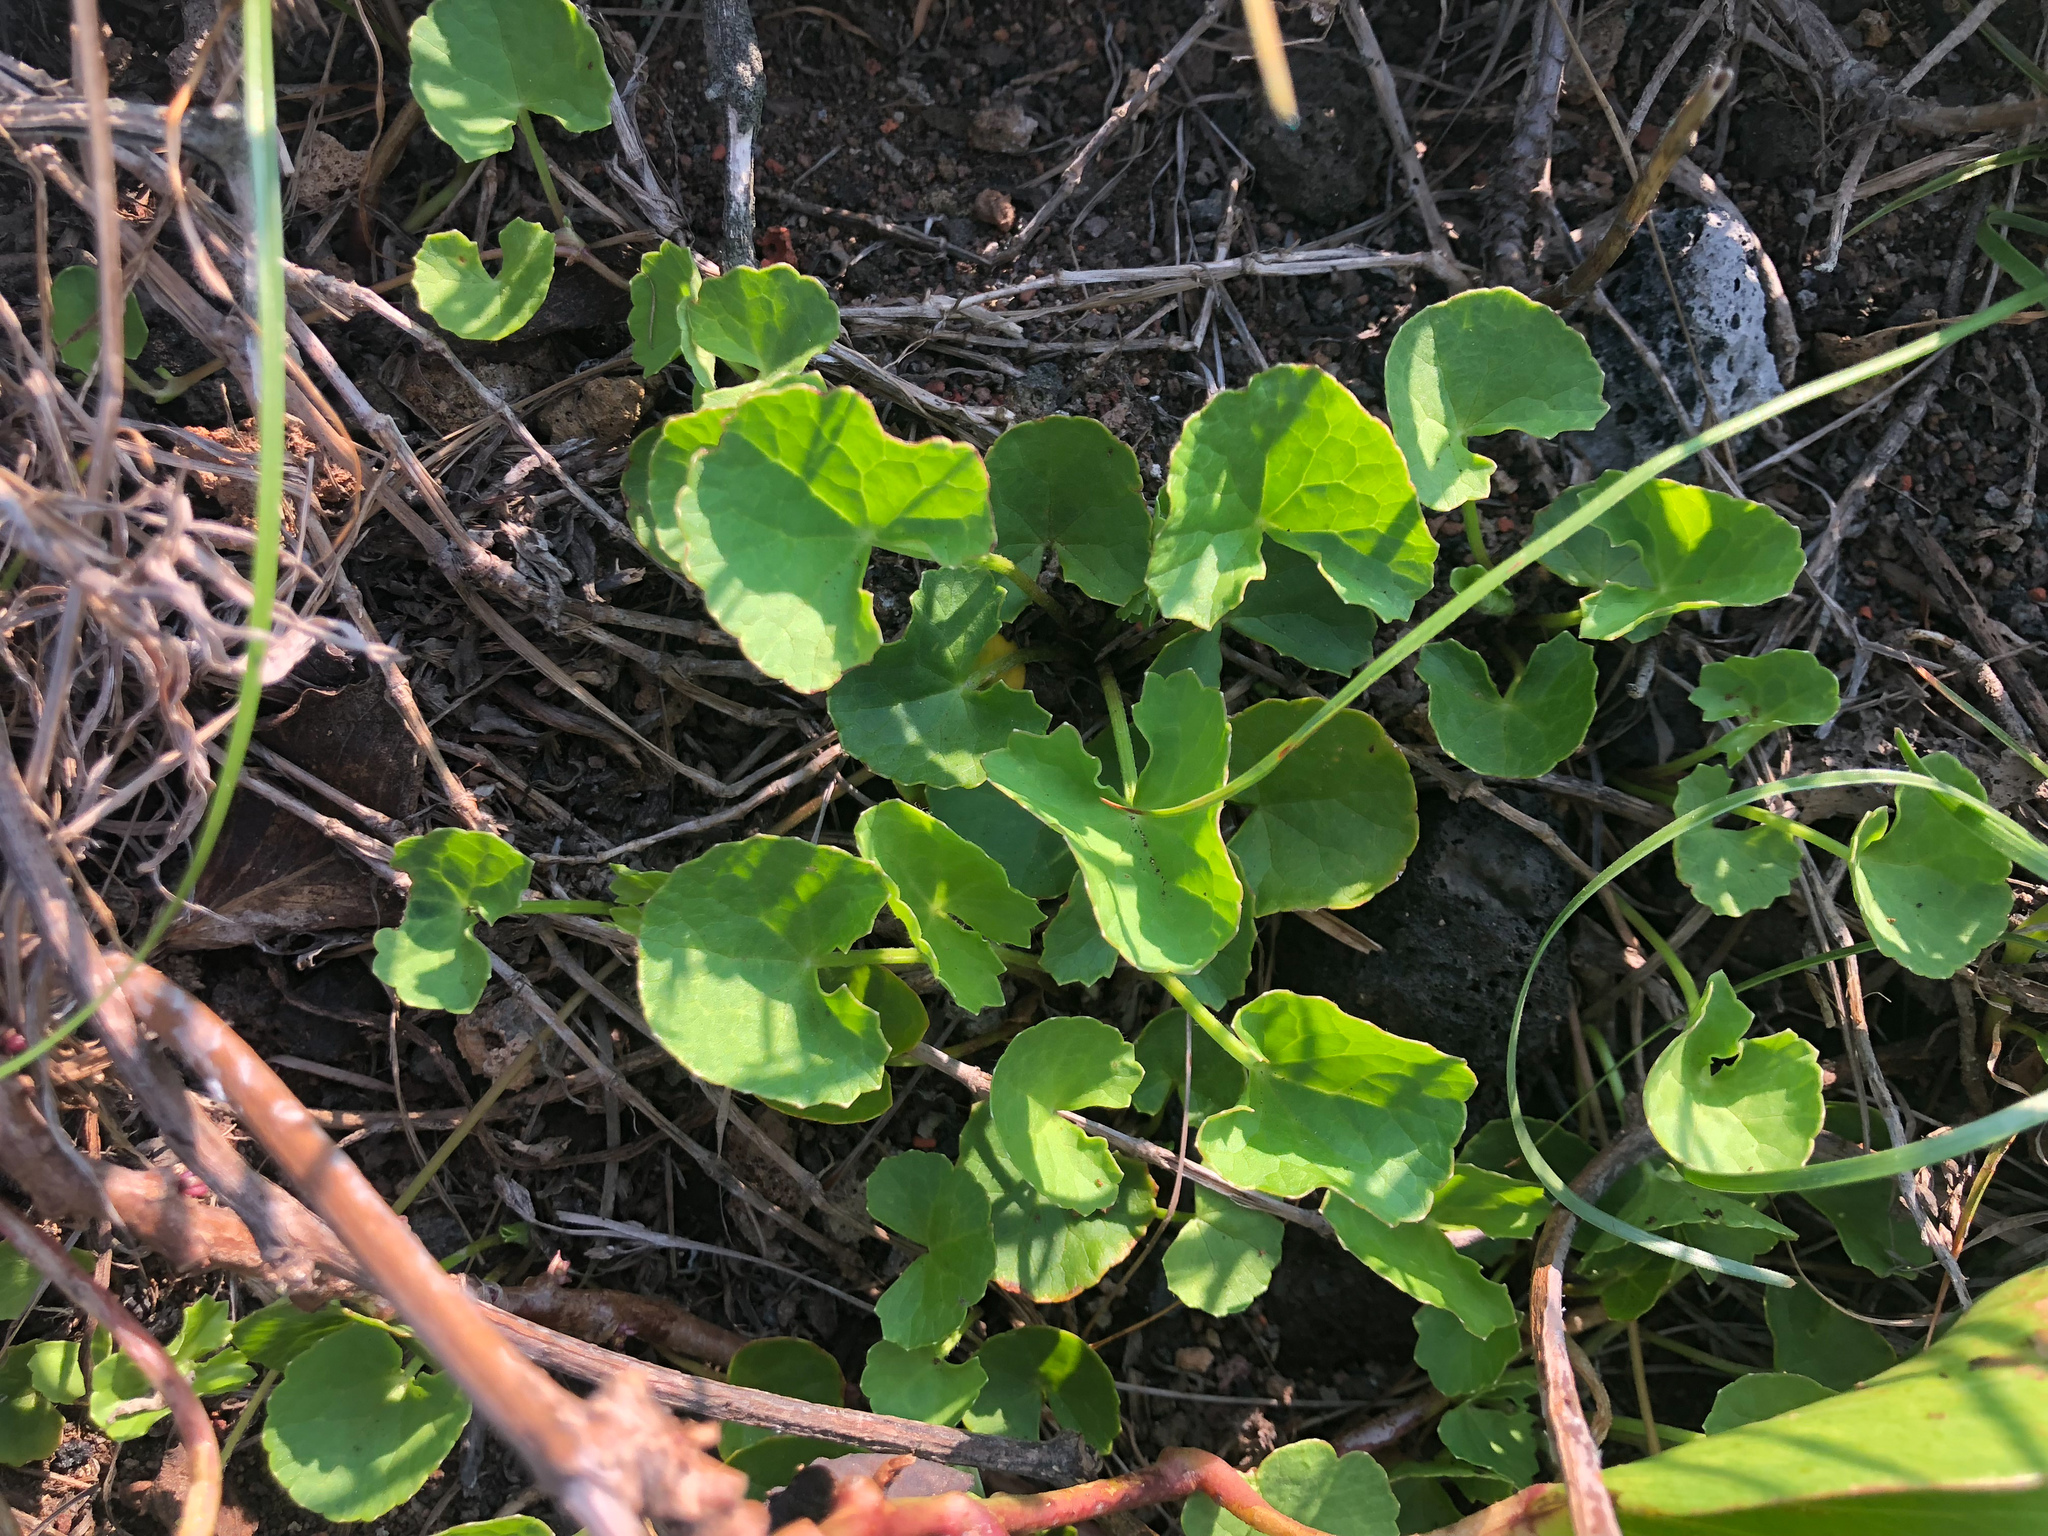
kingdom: Plantae
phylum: Tracheophyta
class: Magnoliopsida
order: Apiales
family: Apiaceae
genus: Centella
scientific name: Centella asiatica
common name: Spadeleaf
